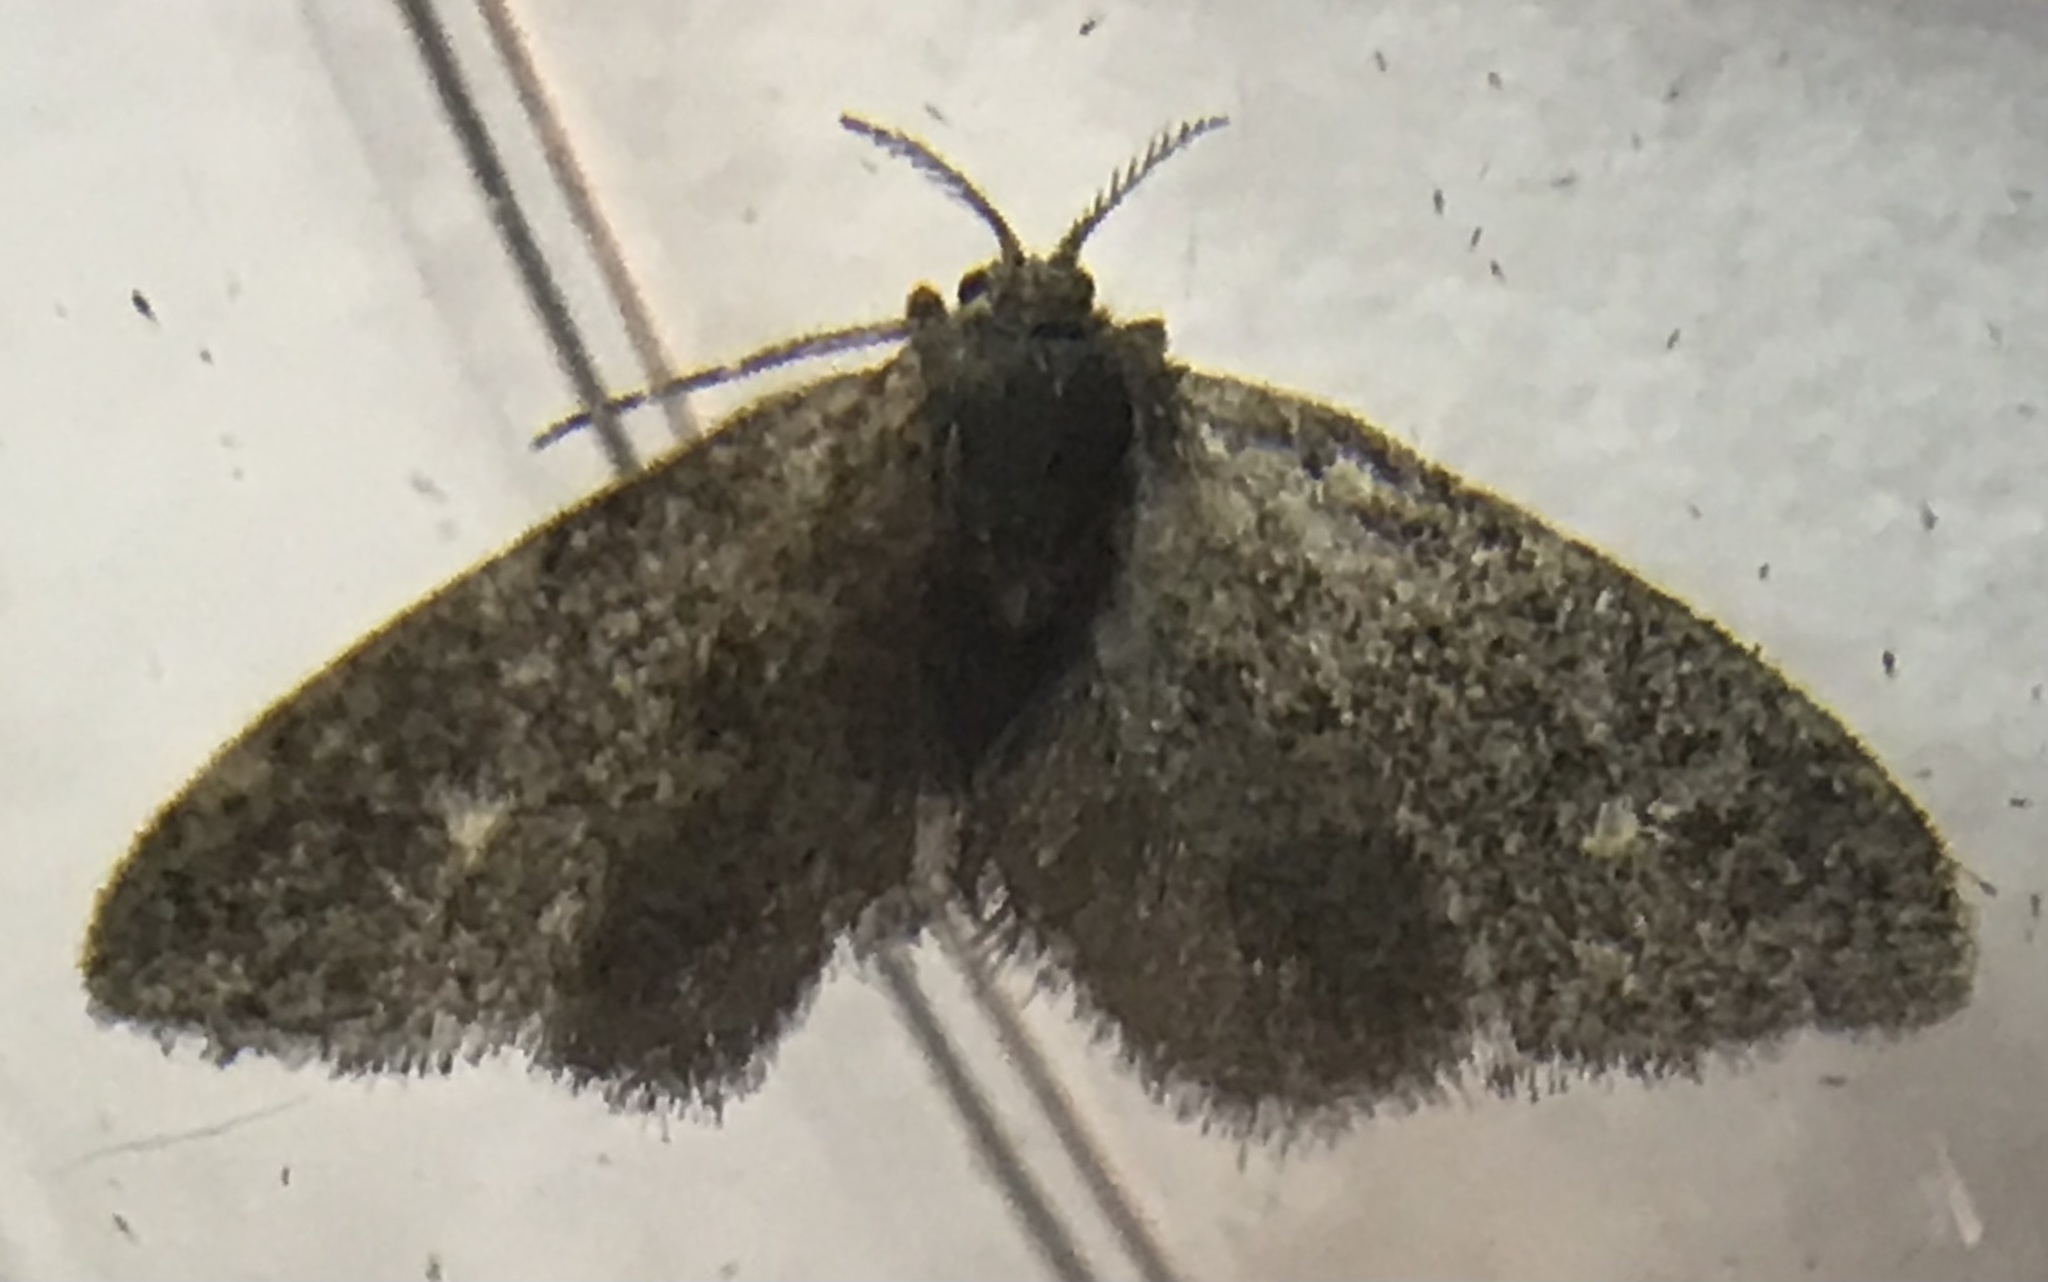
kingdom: Animalia
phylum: Arthropoda
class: Insecta
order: Lepidoptera
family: Epipyropidae
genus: Fulgoraecia
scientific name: Fulgoraecia exigua
